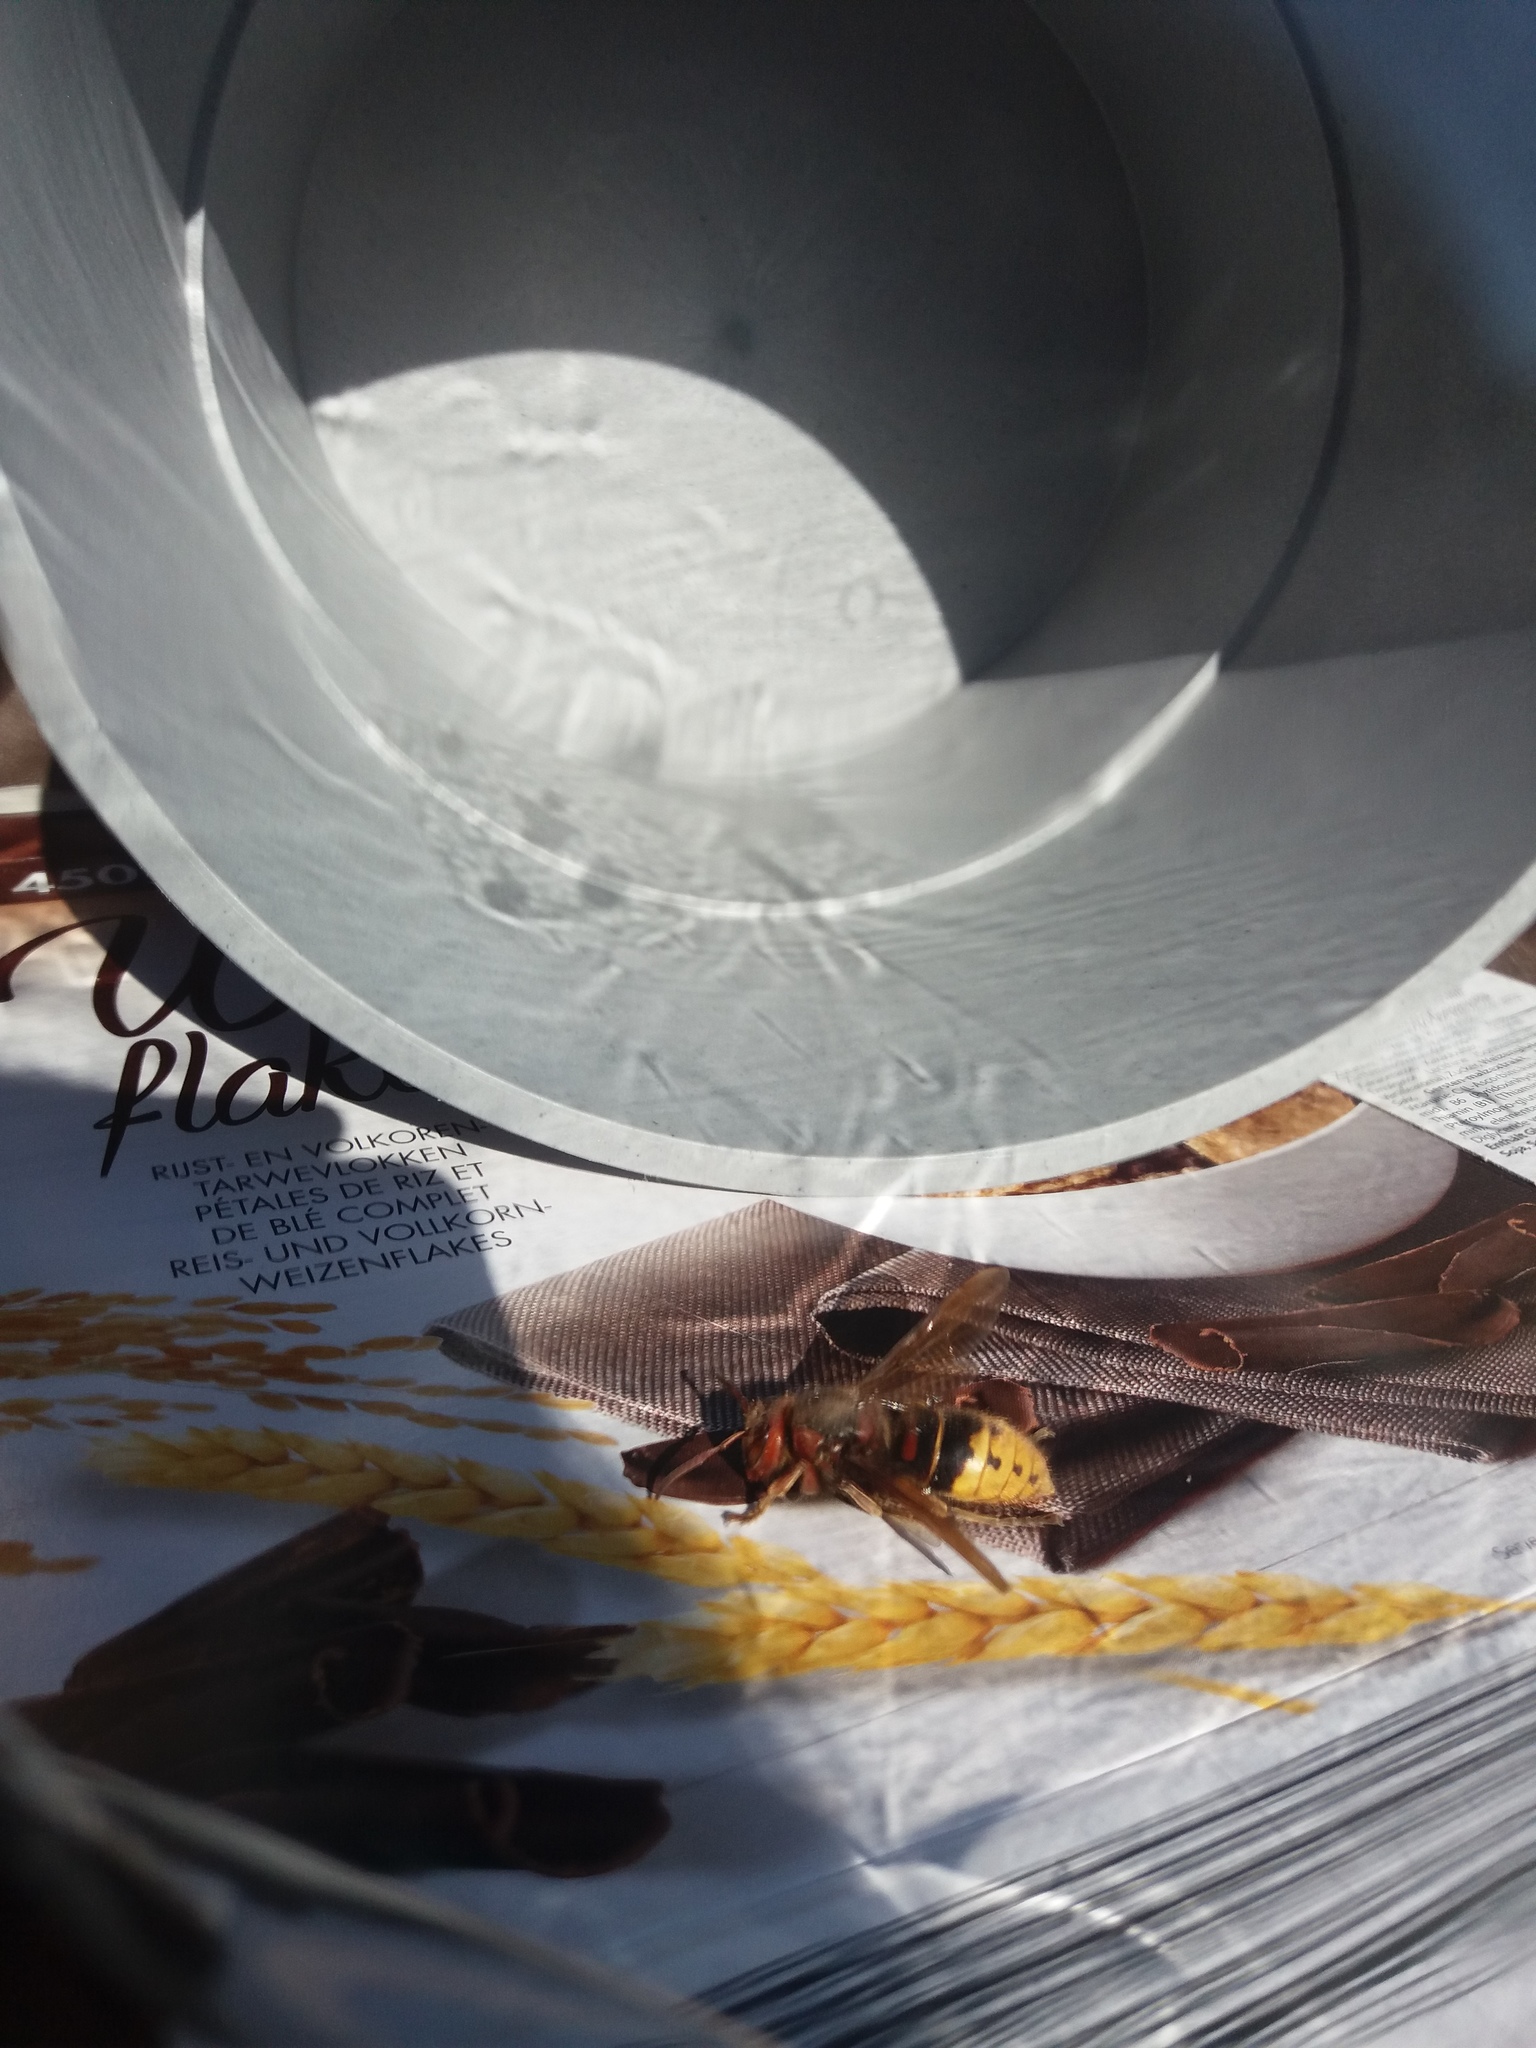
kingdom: Animalia
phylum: Arthropoda
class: Insecta
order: Hymenoptera
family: Vespidae
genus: Vespa
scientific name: Vespa crabro
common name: Hornet
